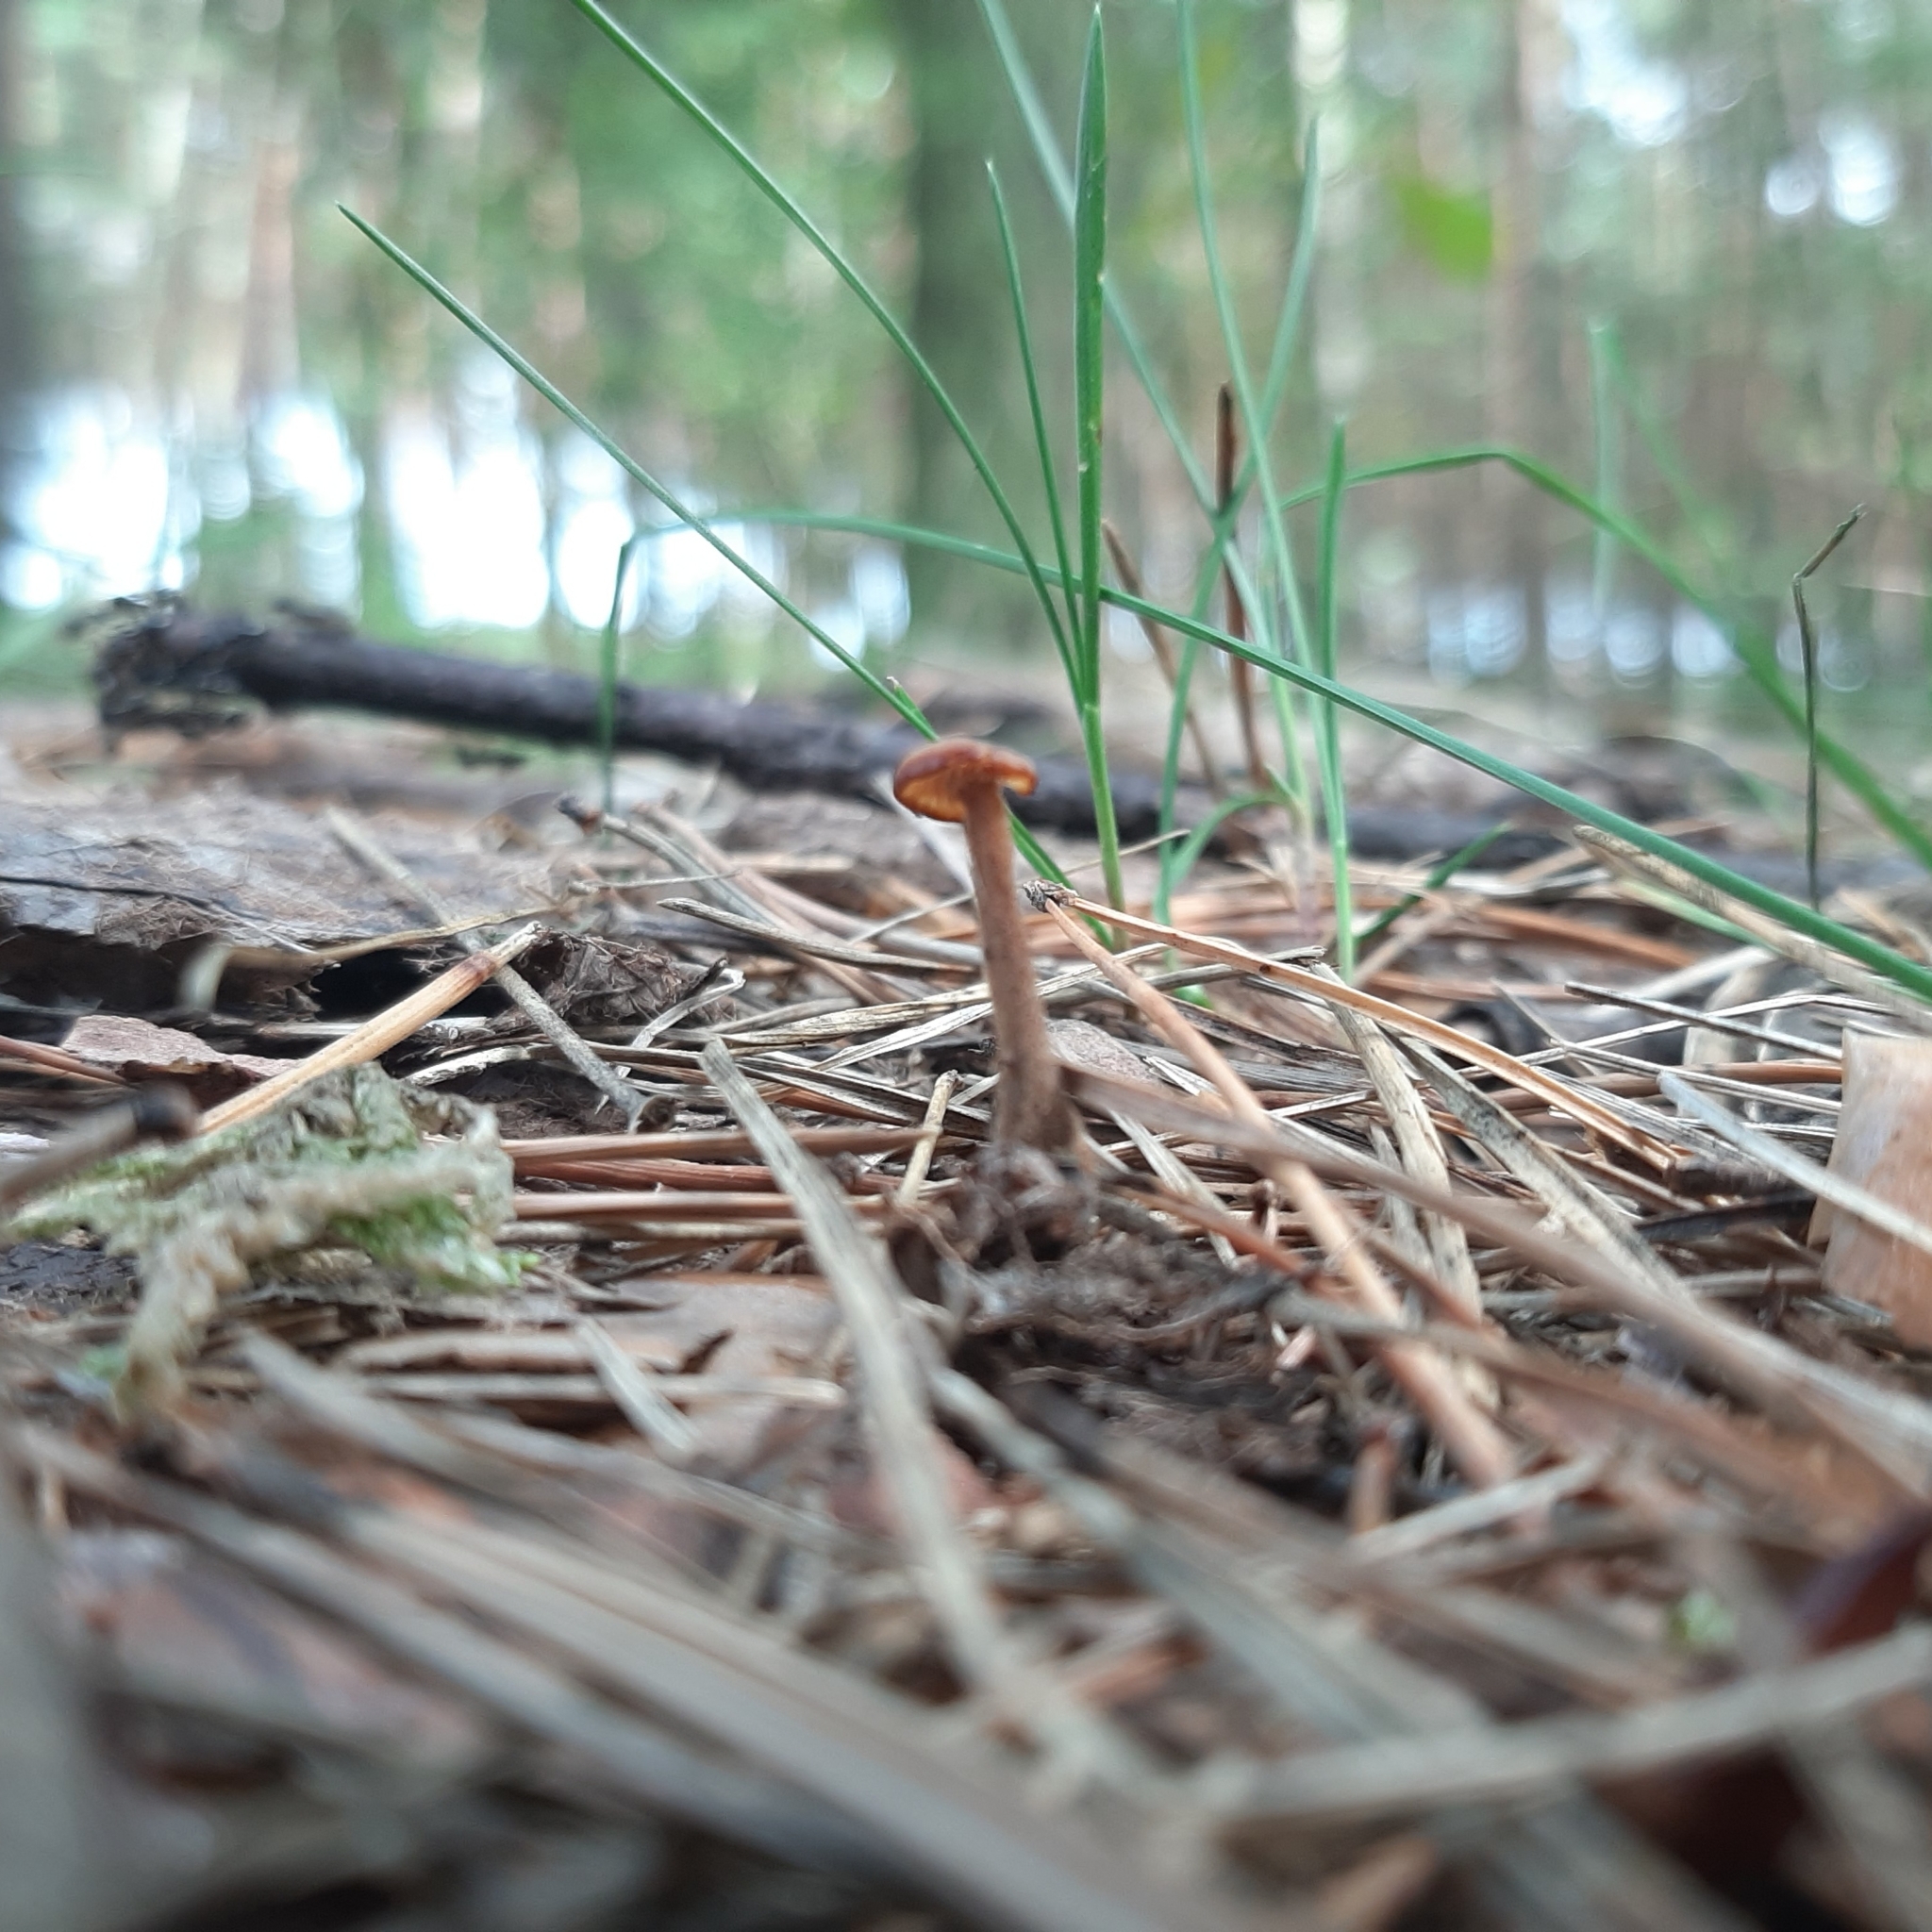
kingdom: Fungi
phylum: Basidiomycota
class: Agaricomycetes
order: Russulales
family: Auriscalpiaceae
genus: Auriscalpium
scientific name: Auriscalpium vulgare
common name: Earpick fungus
